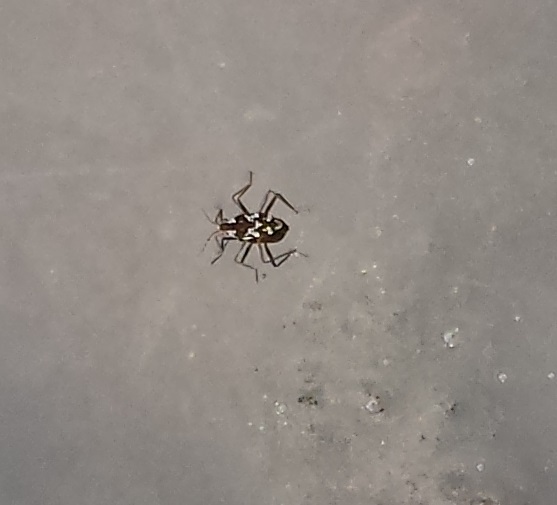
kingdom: Animalia
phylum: Arthropoda
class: Insecta
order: Hemiptera
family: Veliidae
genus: Microvelia
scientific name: Microvelia
